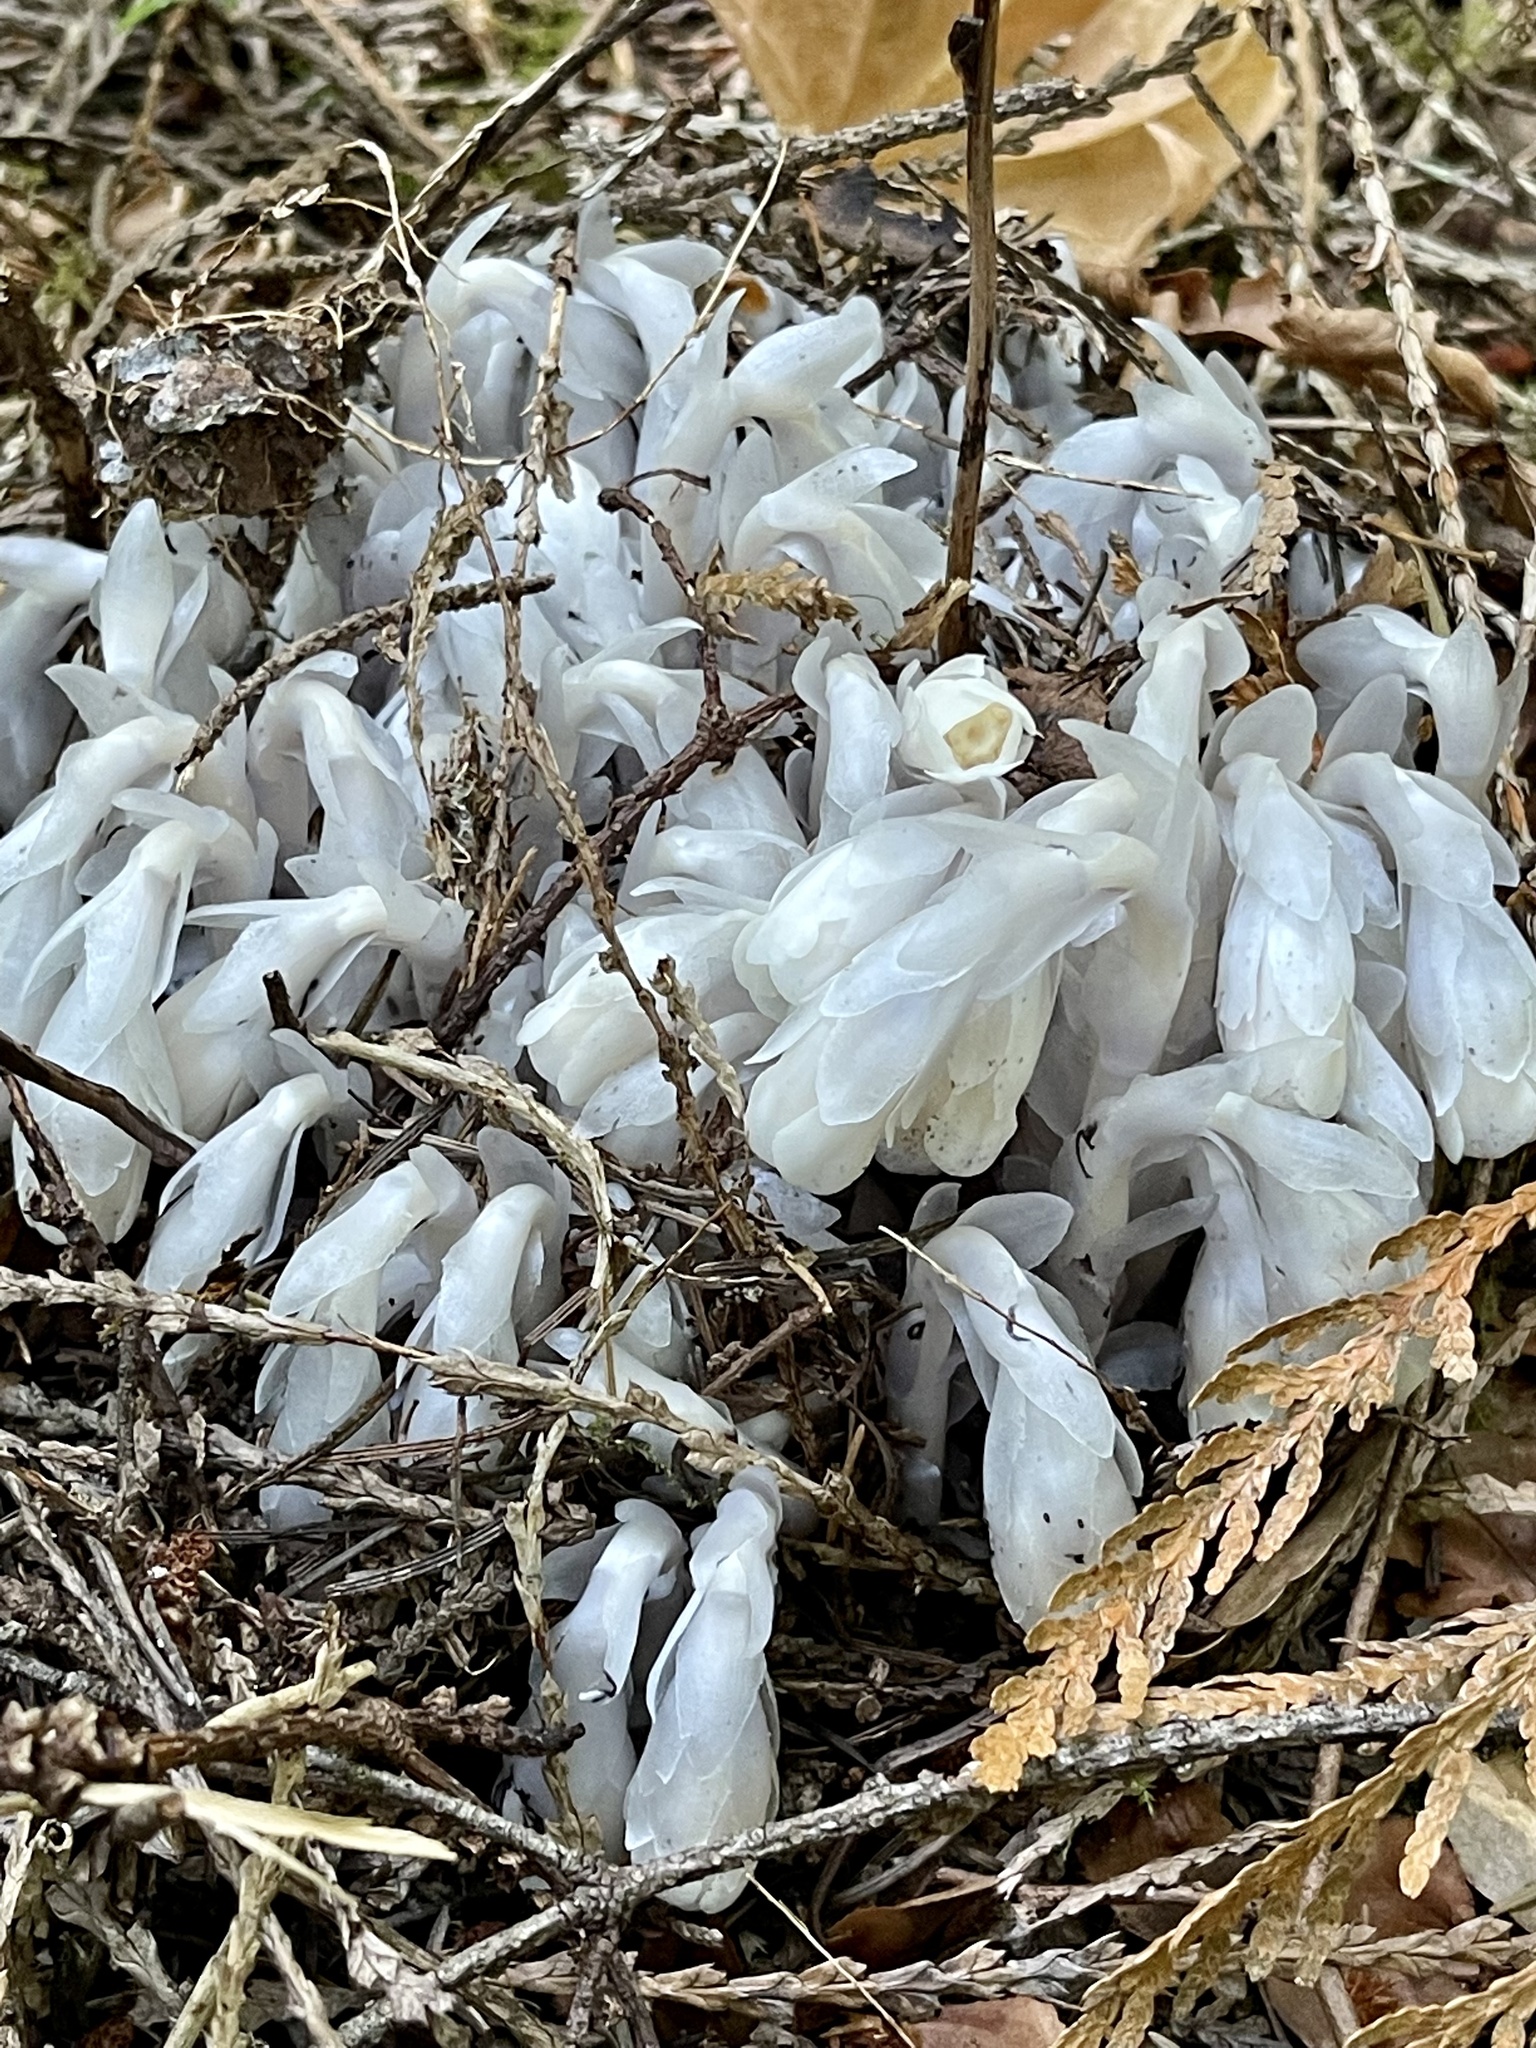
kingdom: Plantae
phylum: Tracheophyta
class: Magnoliopsida
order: Ericales
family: Ericaceae
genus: Monotropa
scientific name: Monotropa uniflora
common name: Convulsion root
